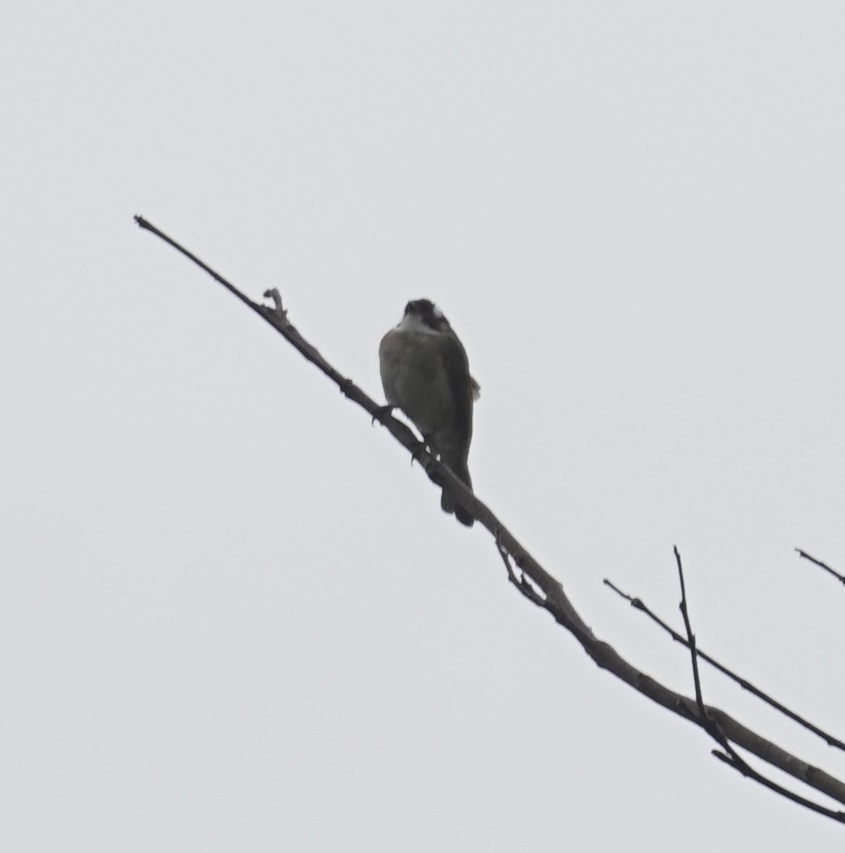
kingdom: Animalia
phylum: Chordata
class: Aves
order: Passeriformes
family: Pycnonotidae
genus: Pycnonotus
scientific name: Pycnonotus sinensis
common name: Light-vented bulbul
